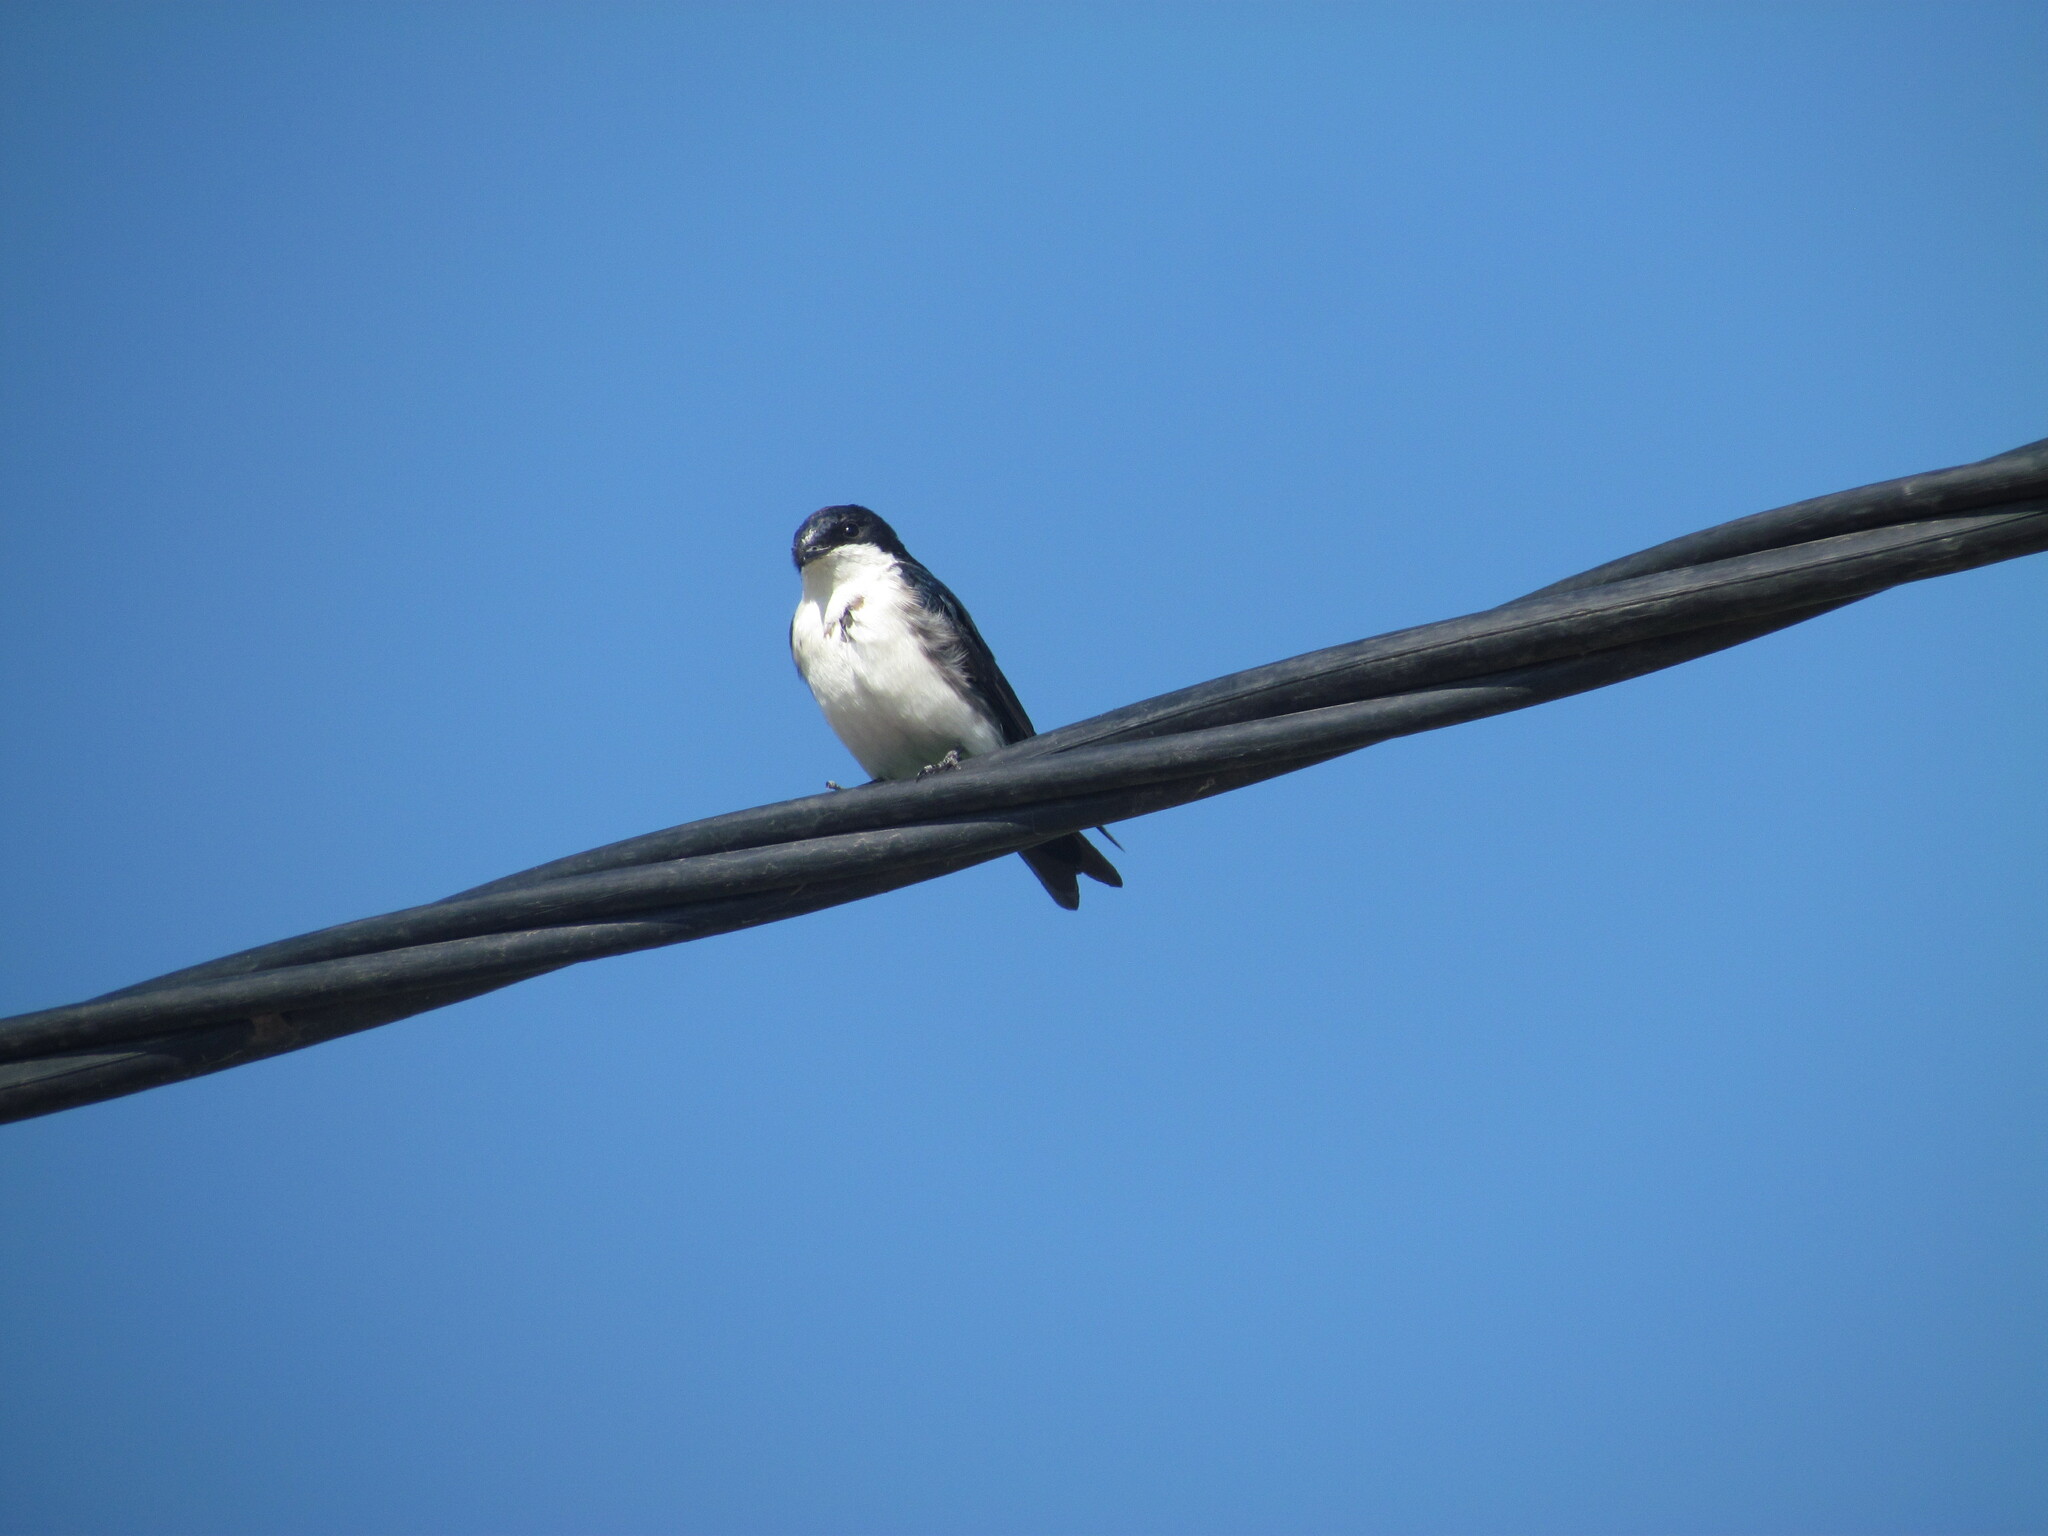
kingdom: Animalia
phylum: Chordata
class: Aves
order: Passeriformes
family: Hirundinidae
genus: Tachycineta
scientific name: Tachycineta leucorrhoa
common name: White-rumped swallow
